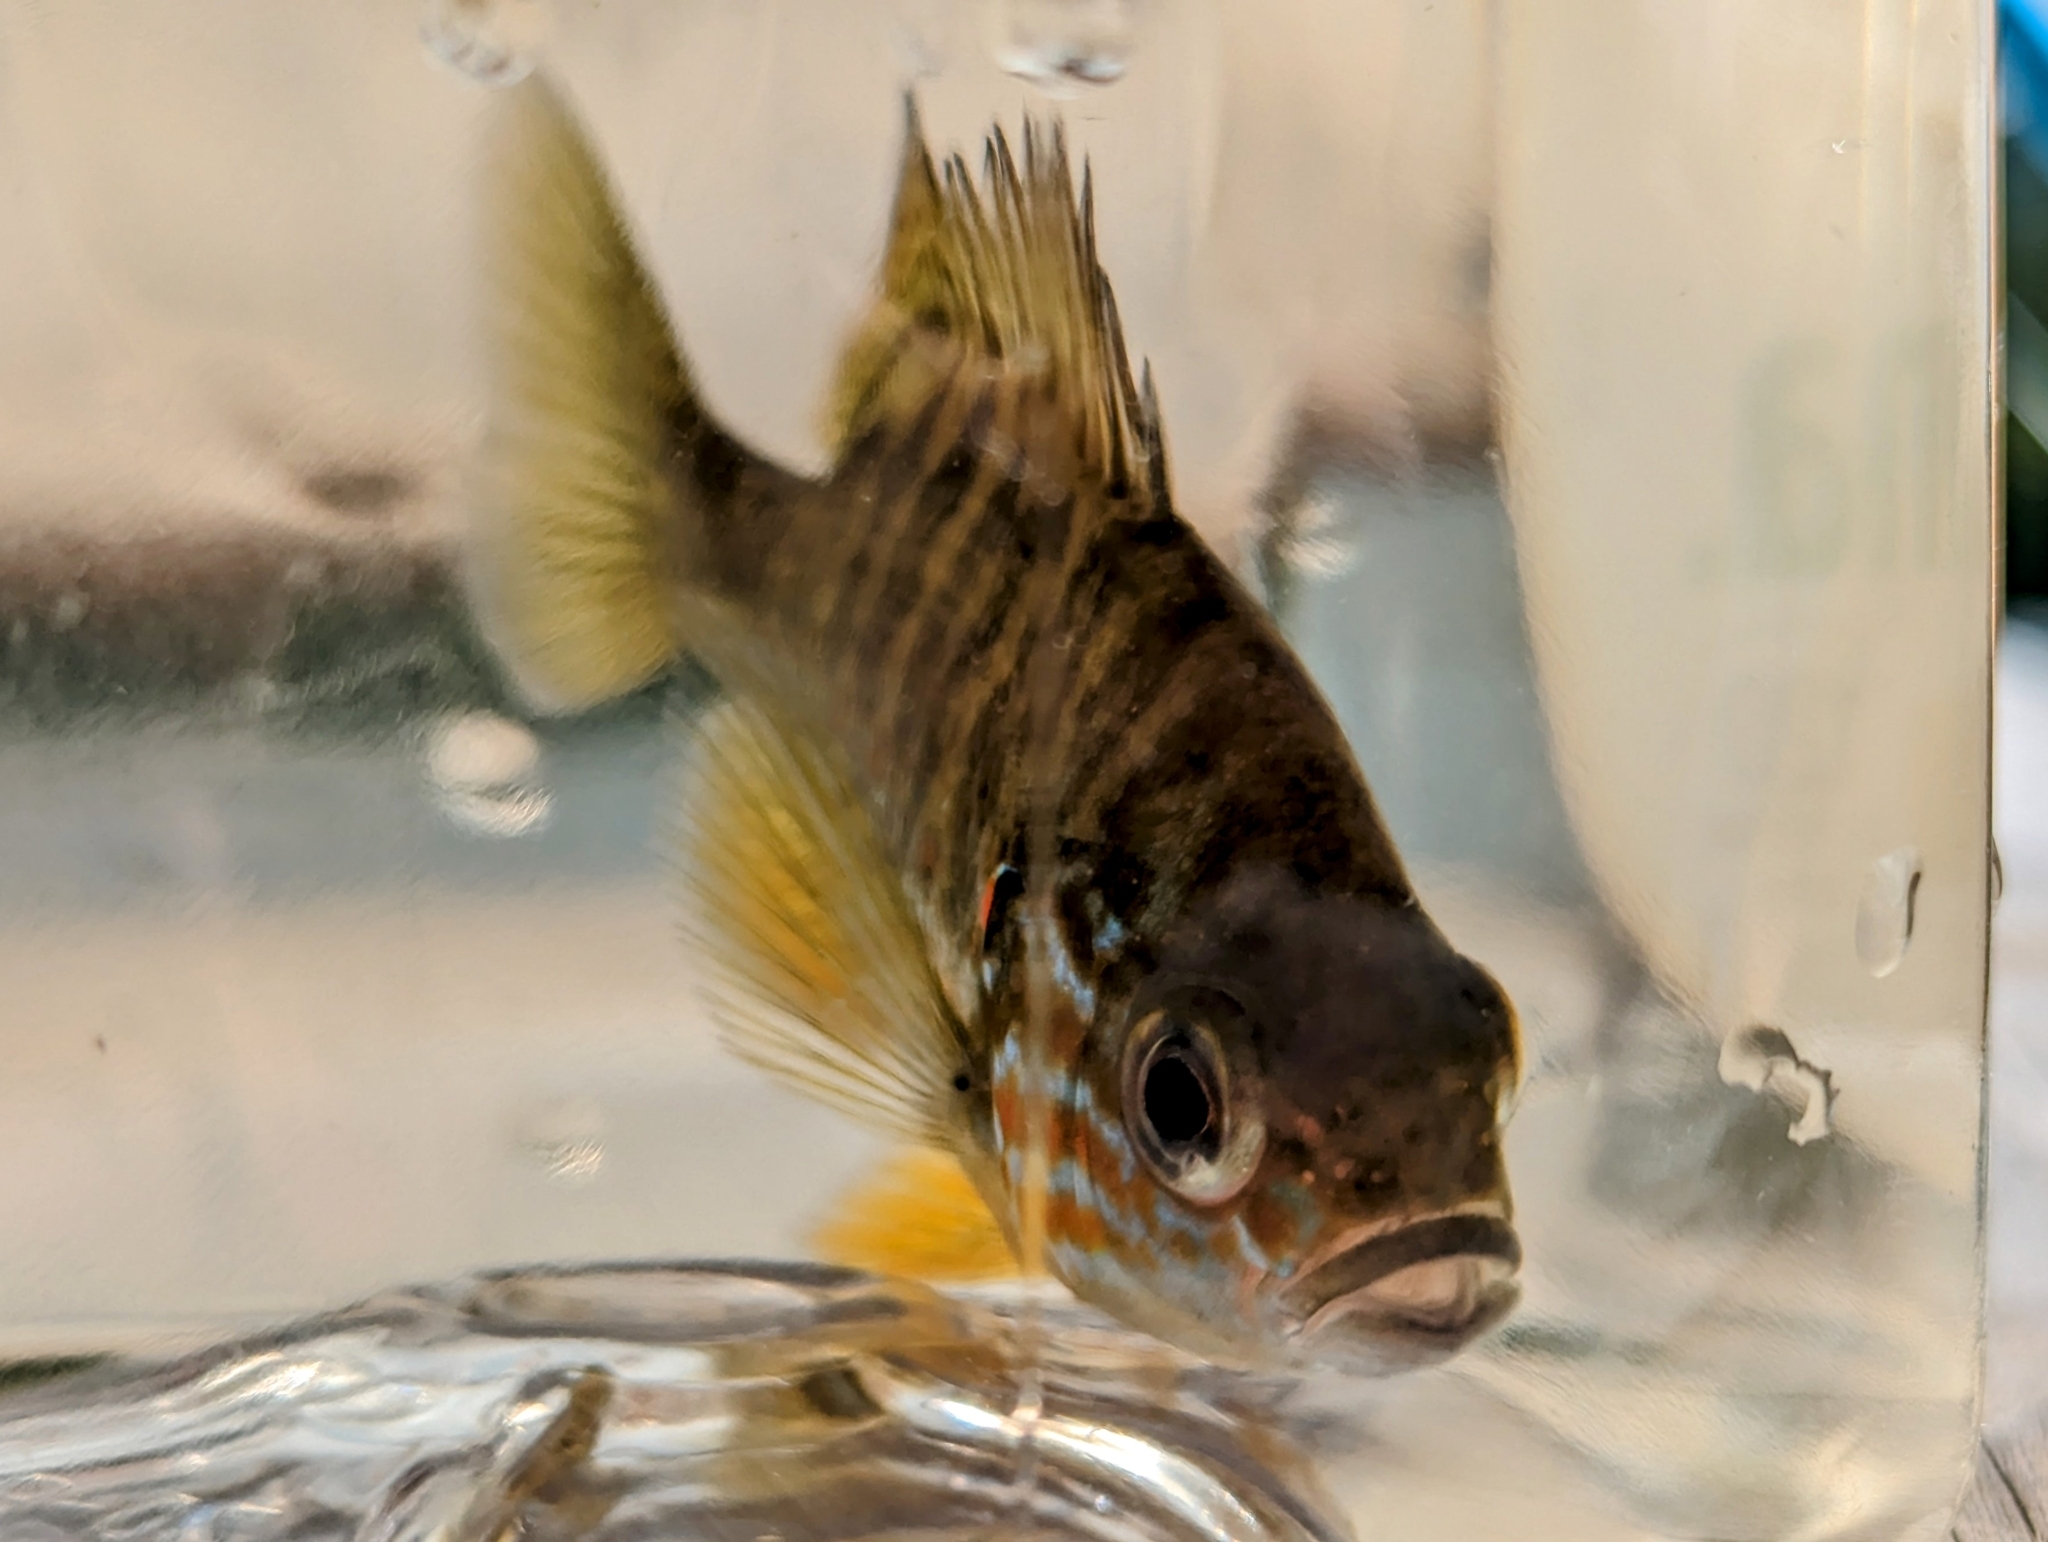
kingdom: Animalia
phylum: Chordata
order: Perciformes
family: Centrarchidae
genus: Lepomis
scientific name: Lepomis gibbosus
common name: Pumpkinseed
